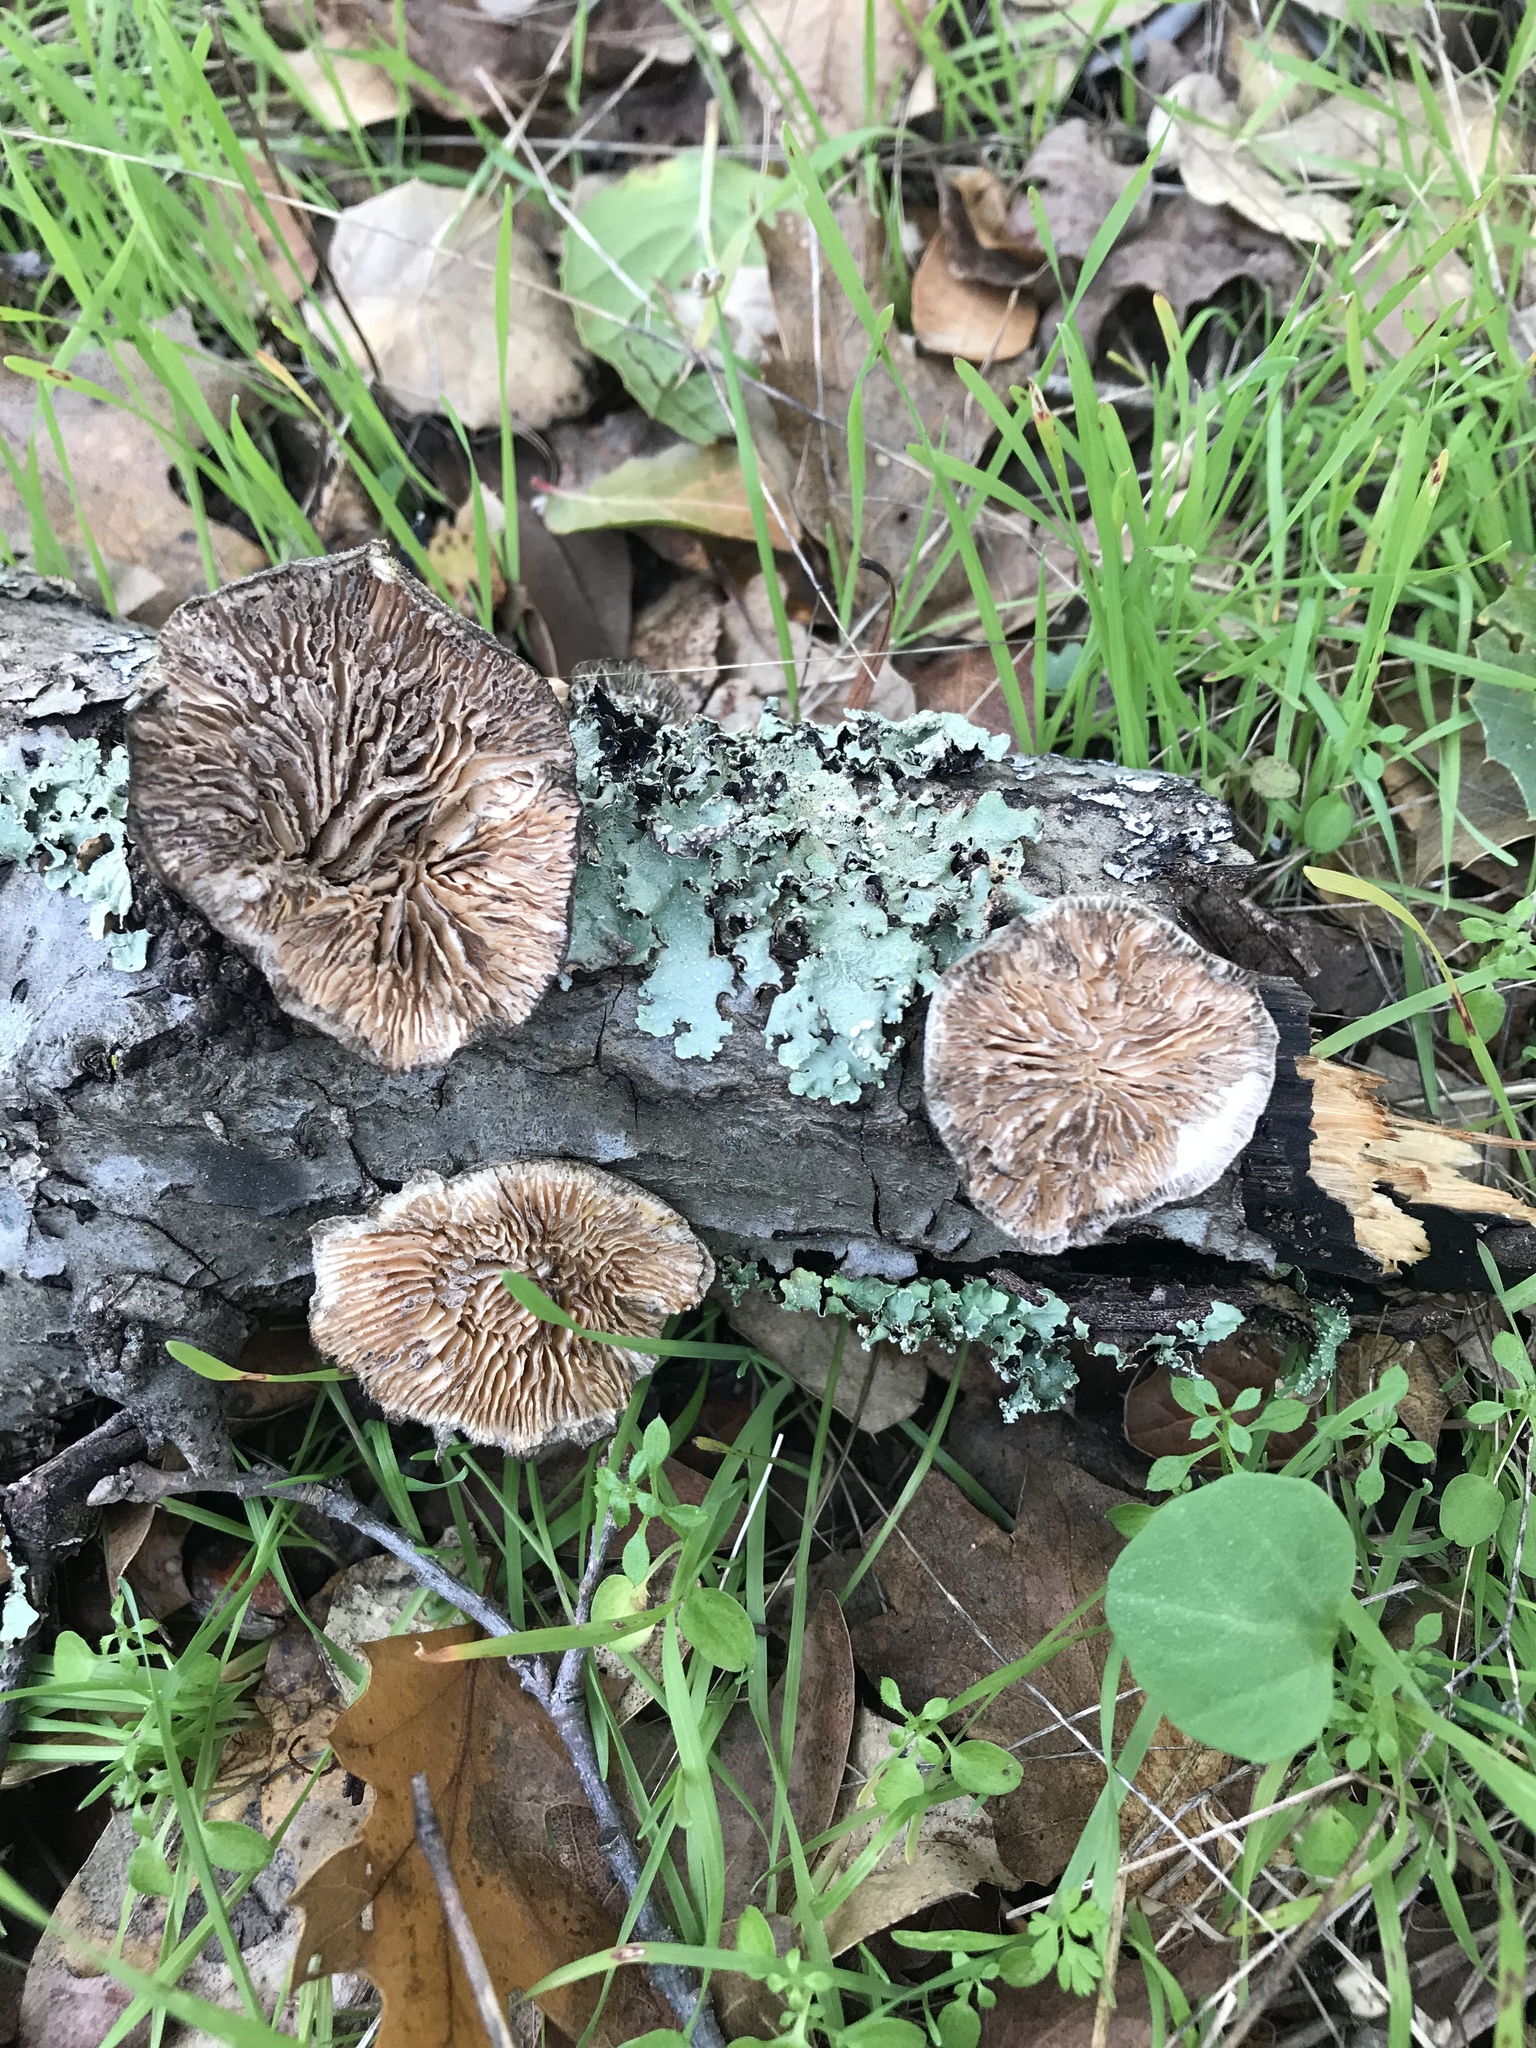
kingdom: Fungi
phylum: Basidiomycota
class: Agaricomycetes
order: Polyporales
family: Polyporaceae
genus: Lenzites
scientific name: Lenzites betulinus
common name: Birch mazegill
